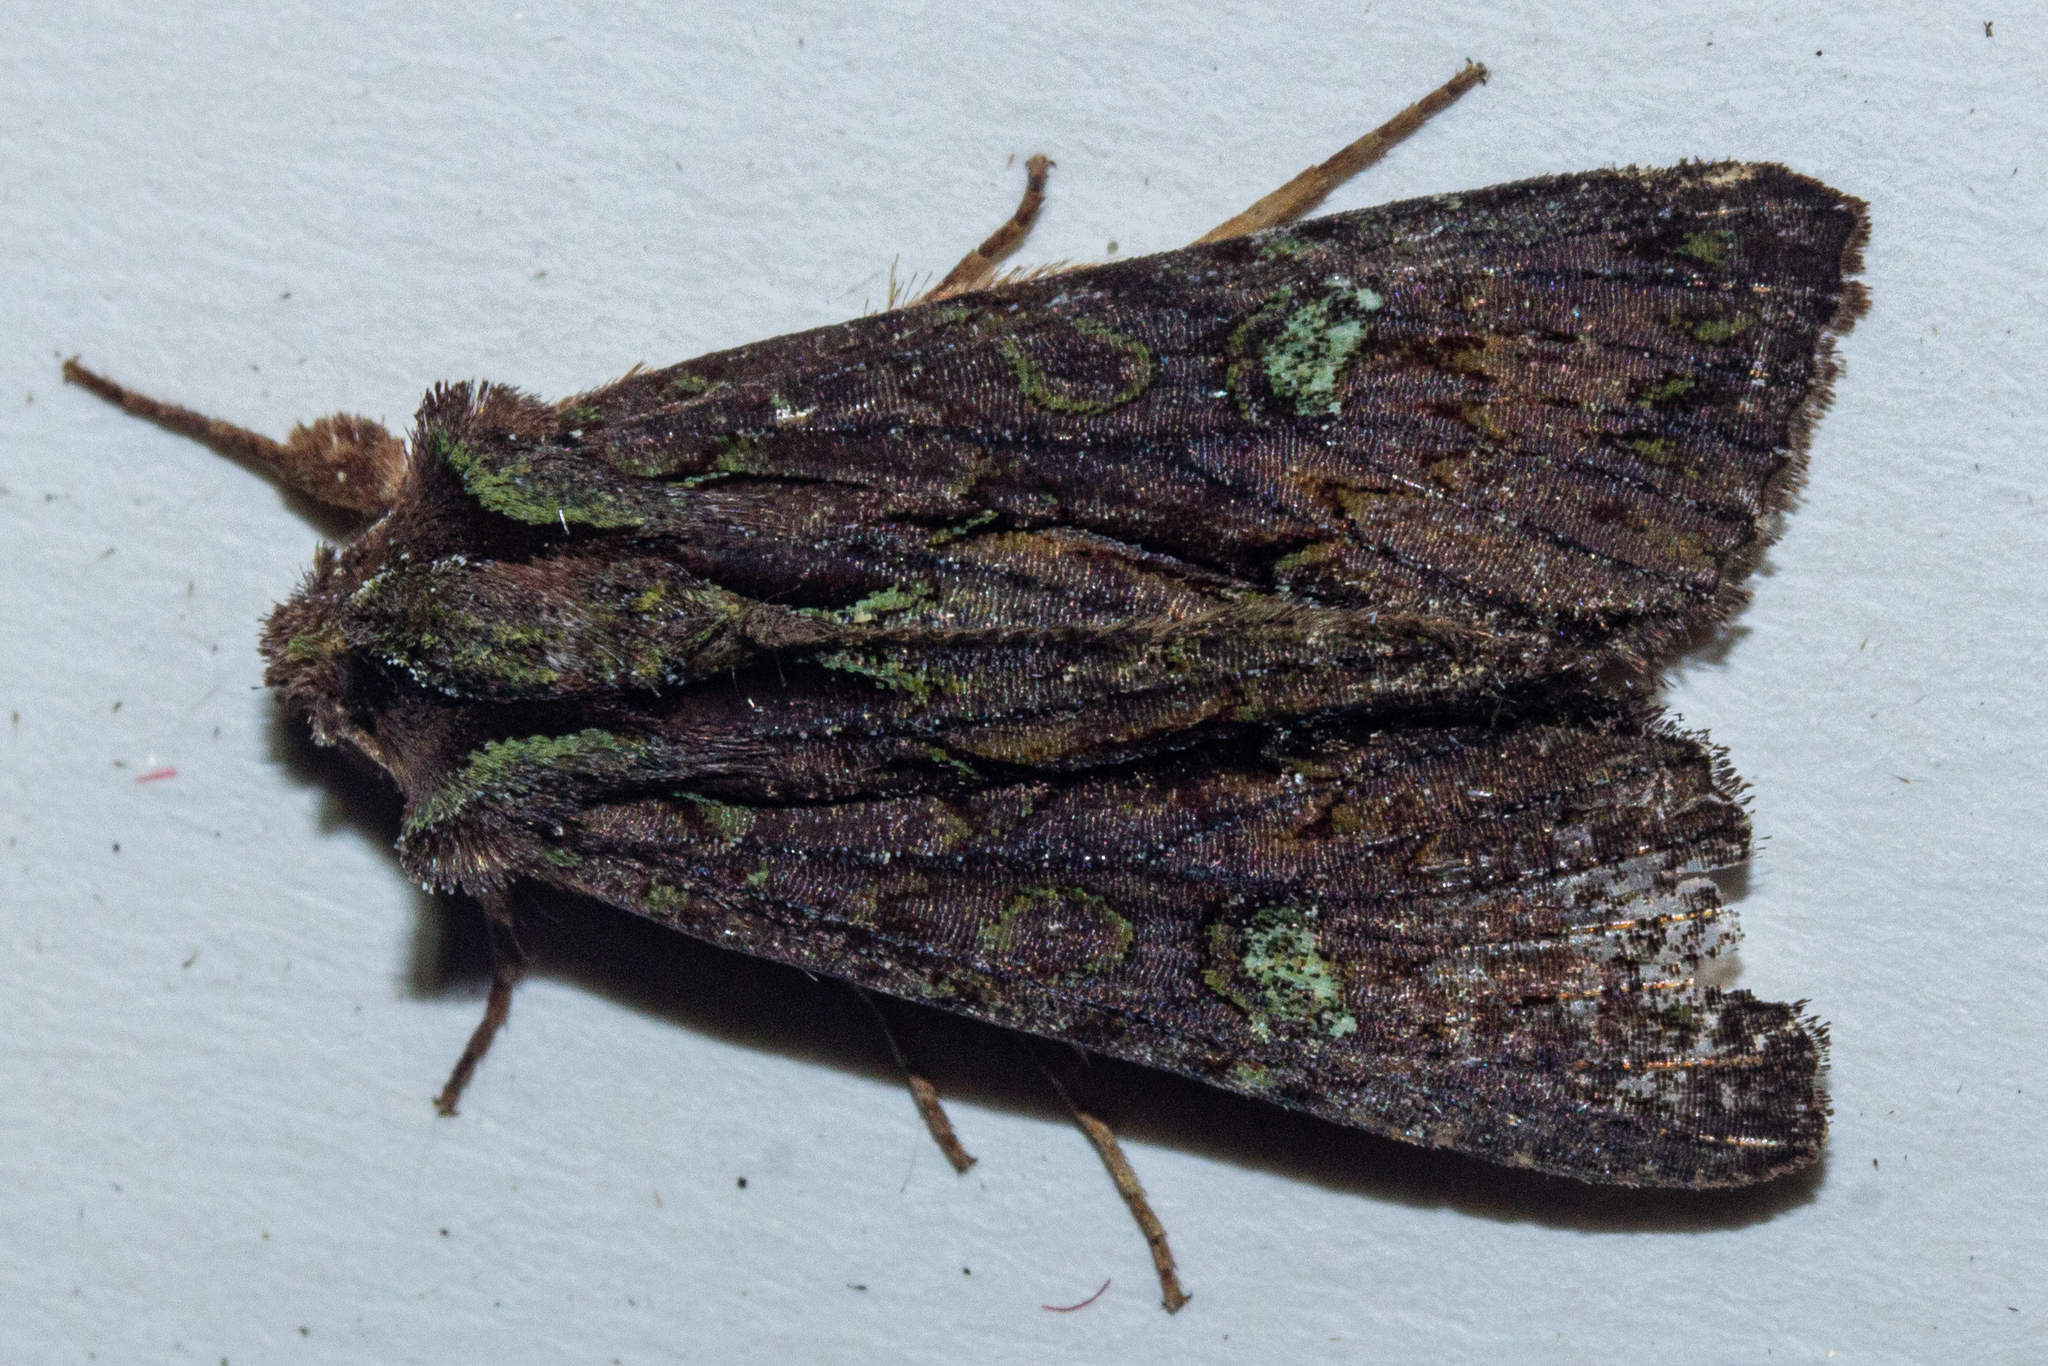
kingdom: Animalia
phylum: Arthropoda
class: Insecta
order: Lepidoptera
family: Noctuidae
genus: Meterana
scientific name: Meterana diatmeta
